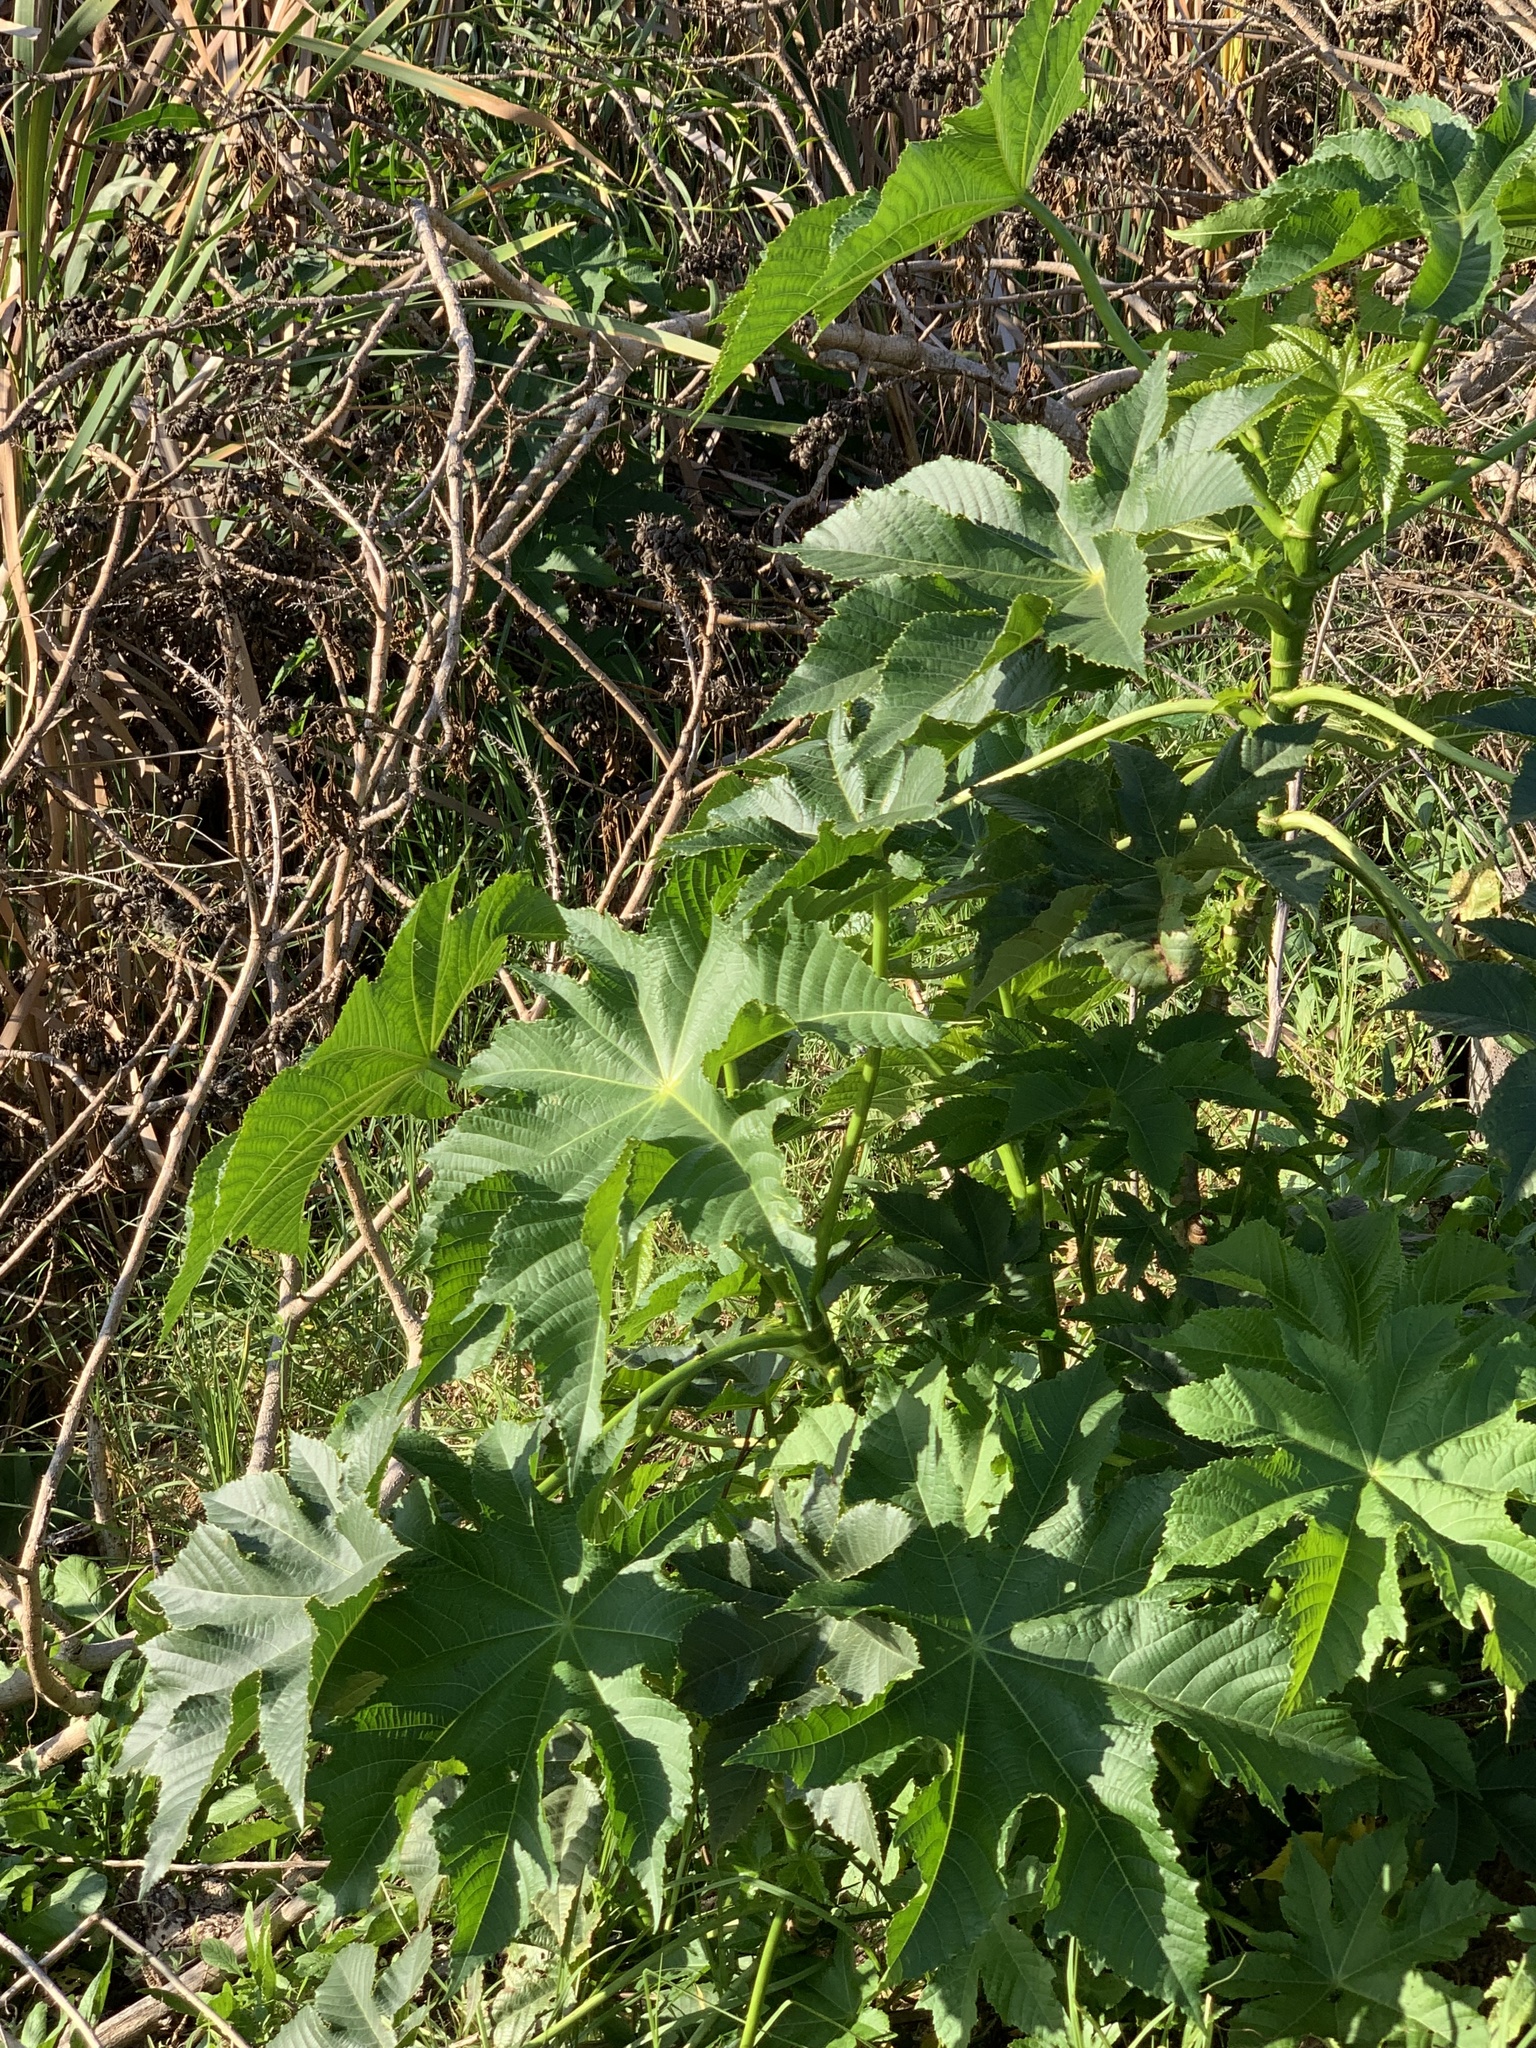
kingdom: Plantae
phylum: Tracheophyta
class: Magnoliopsida
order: Malpighiales
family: Euphorbiaceae
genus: Ricinus
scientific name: Ricinus communis
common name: Castor-oil-plant
